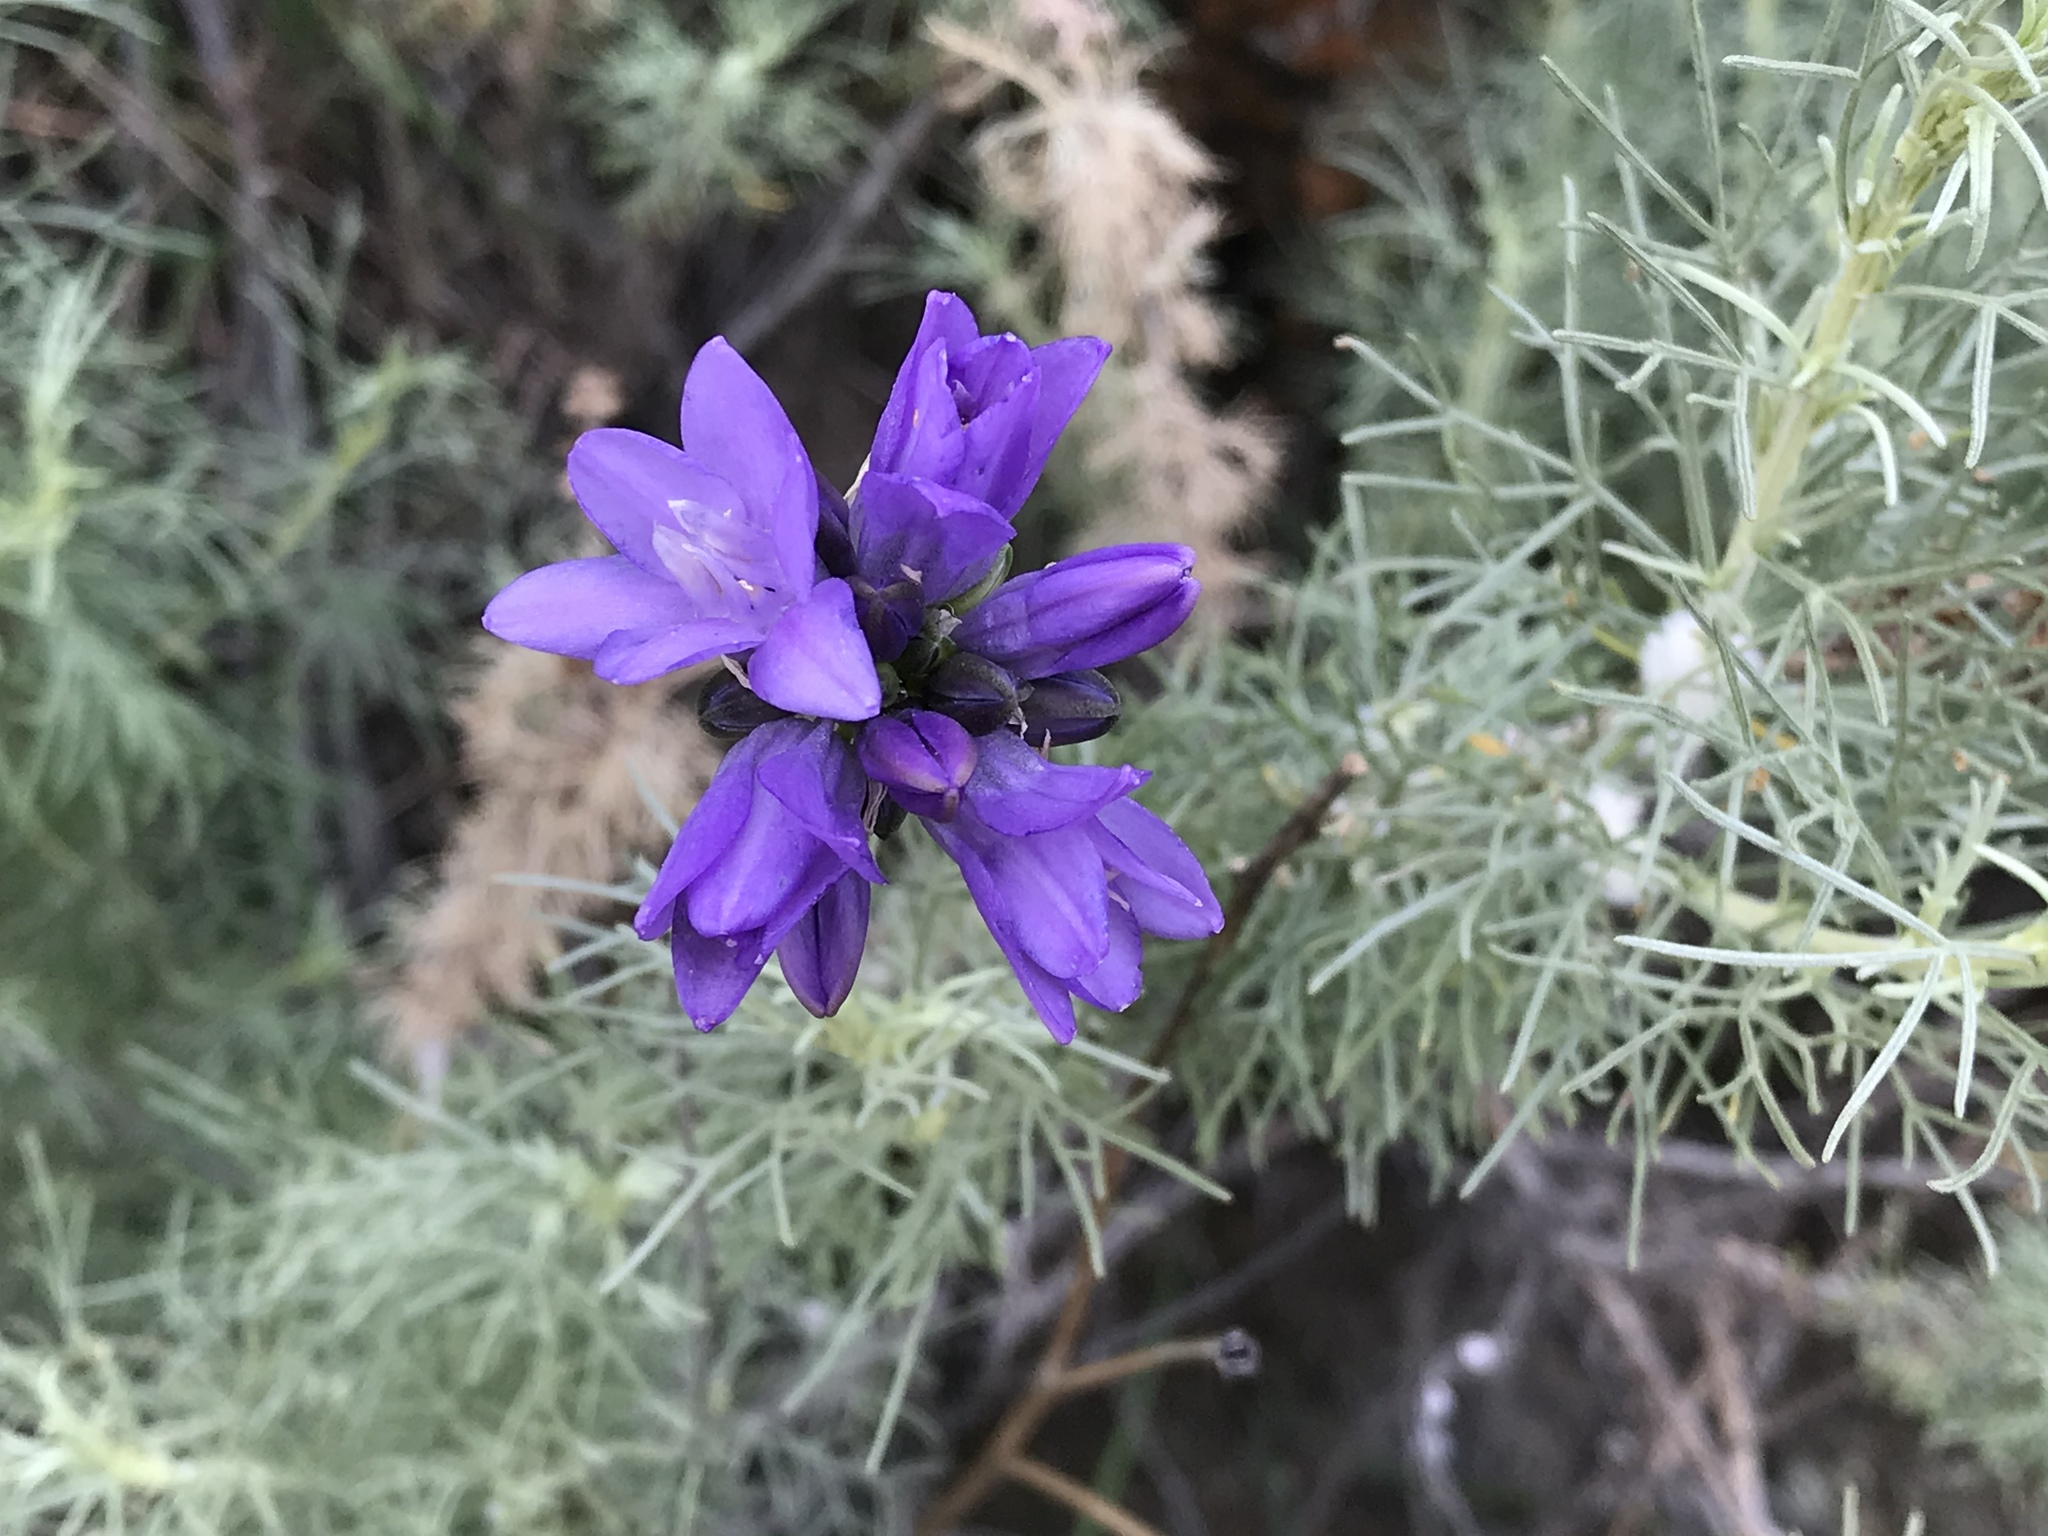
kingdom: Plantae
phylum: Tracheophyta
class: Liliopsida
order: Asparagales
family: Asparagaceae
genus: Dipterostemon
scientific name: Dipterostemon capitatus
